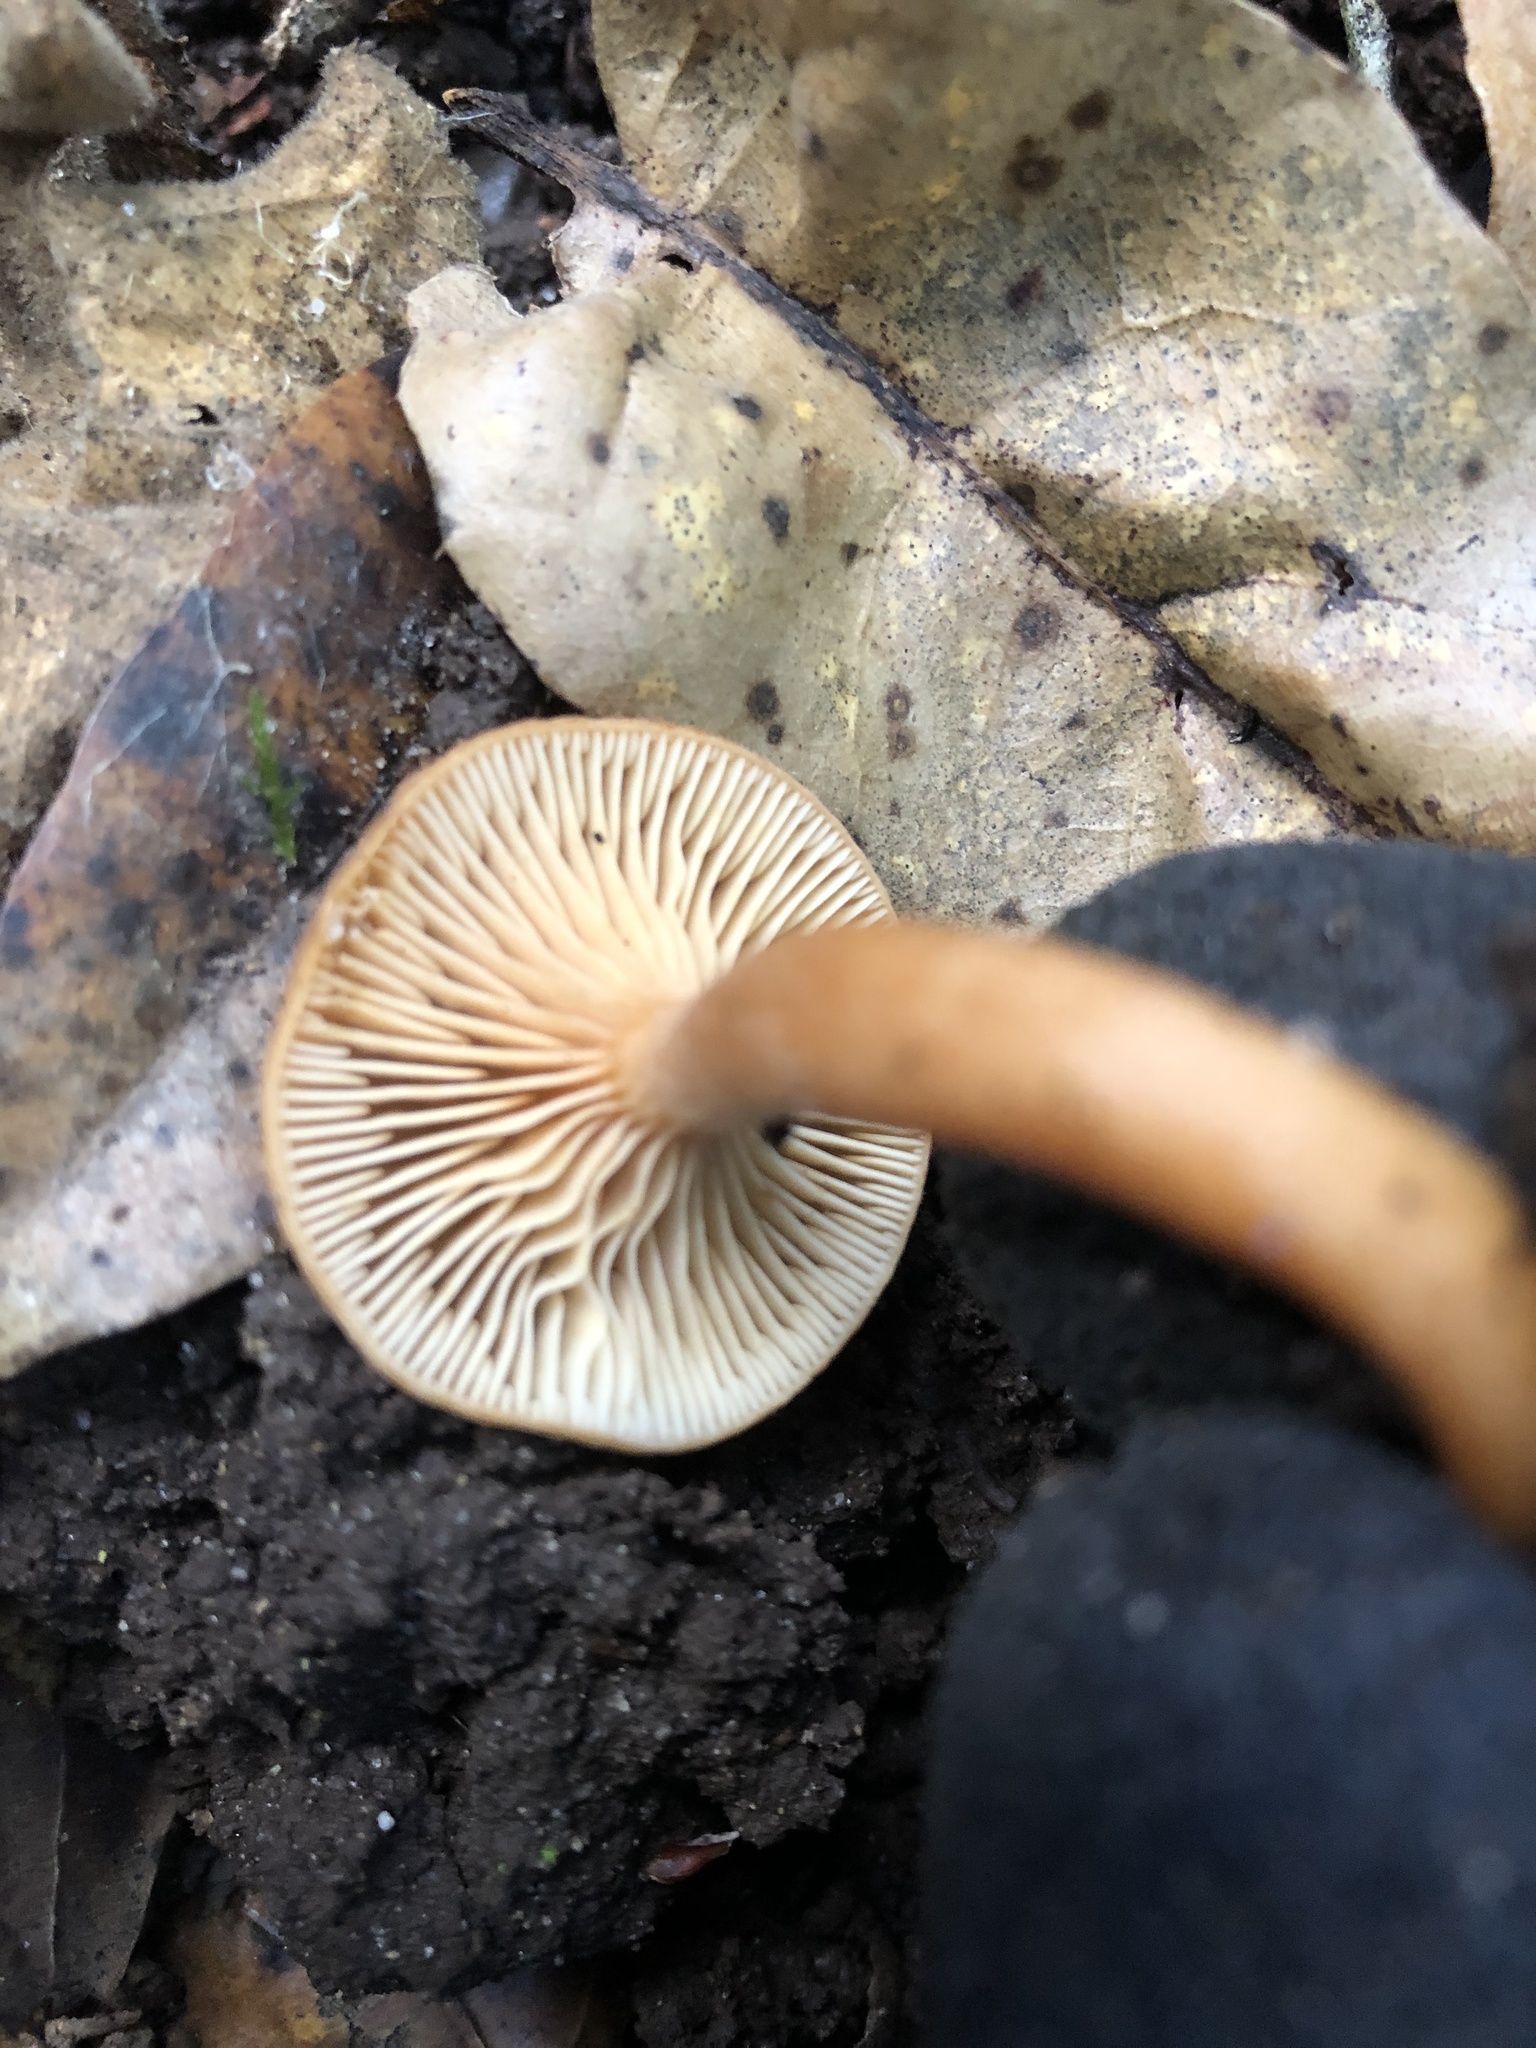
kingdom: Fungi
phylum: Basidiomycota
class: Agaricomycetes
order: Russulales
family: Russulaceae
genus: Lactarius
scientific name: Lactarius rubidus
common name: Candy cap
